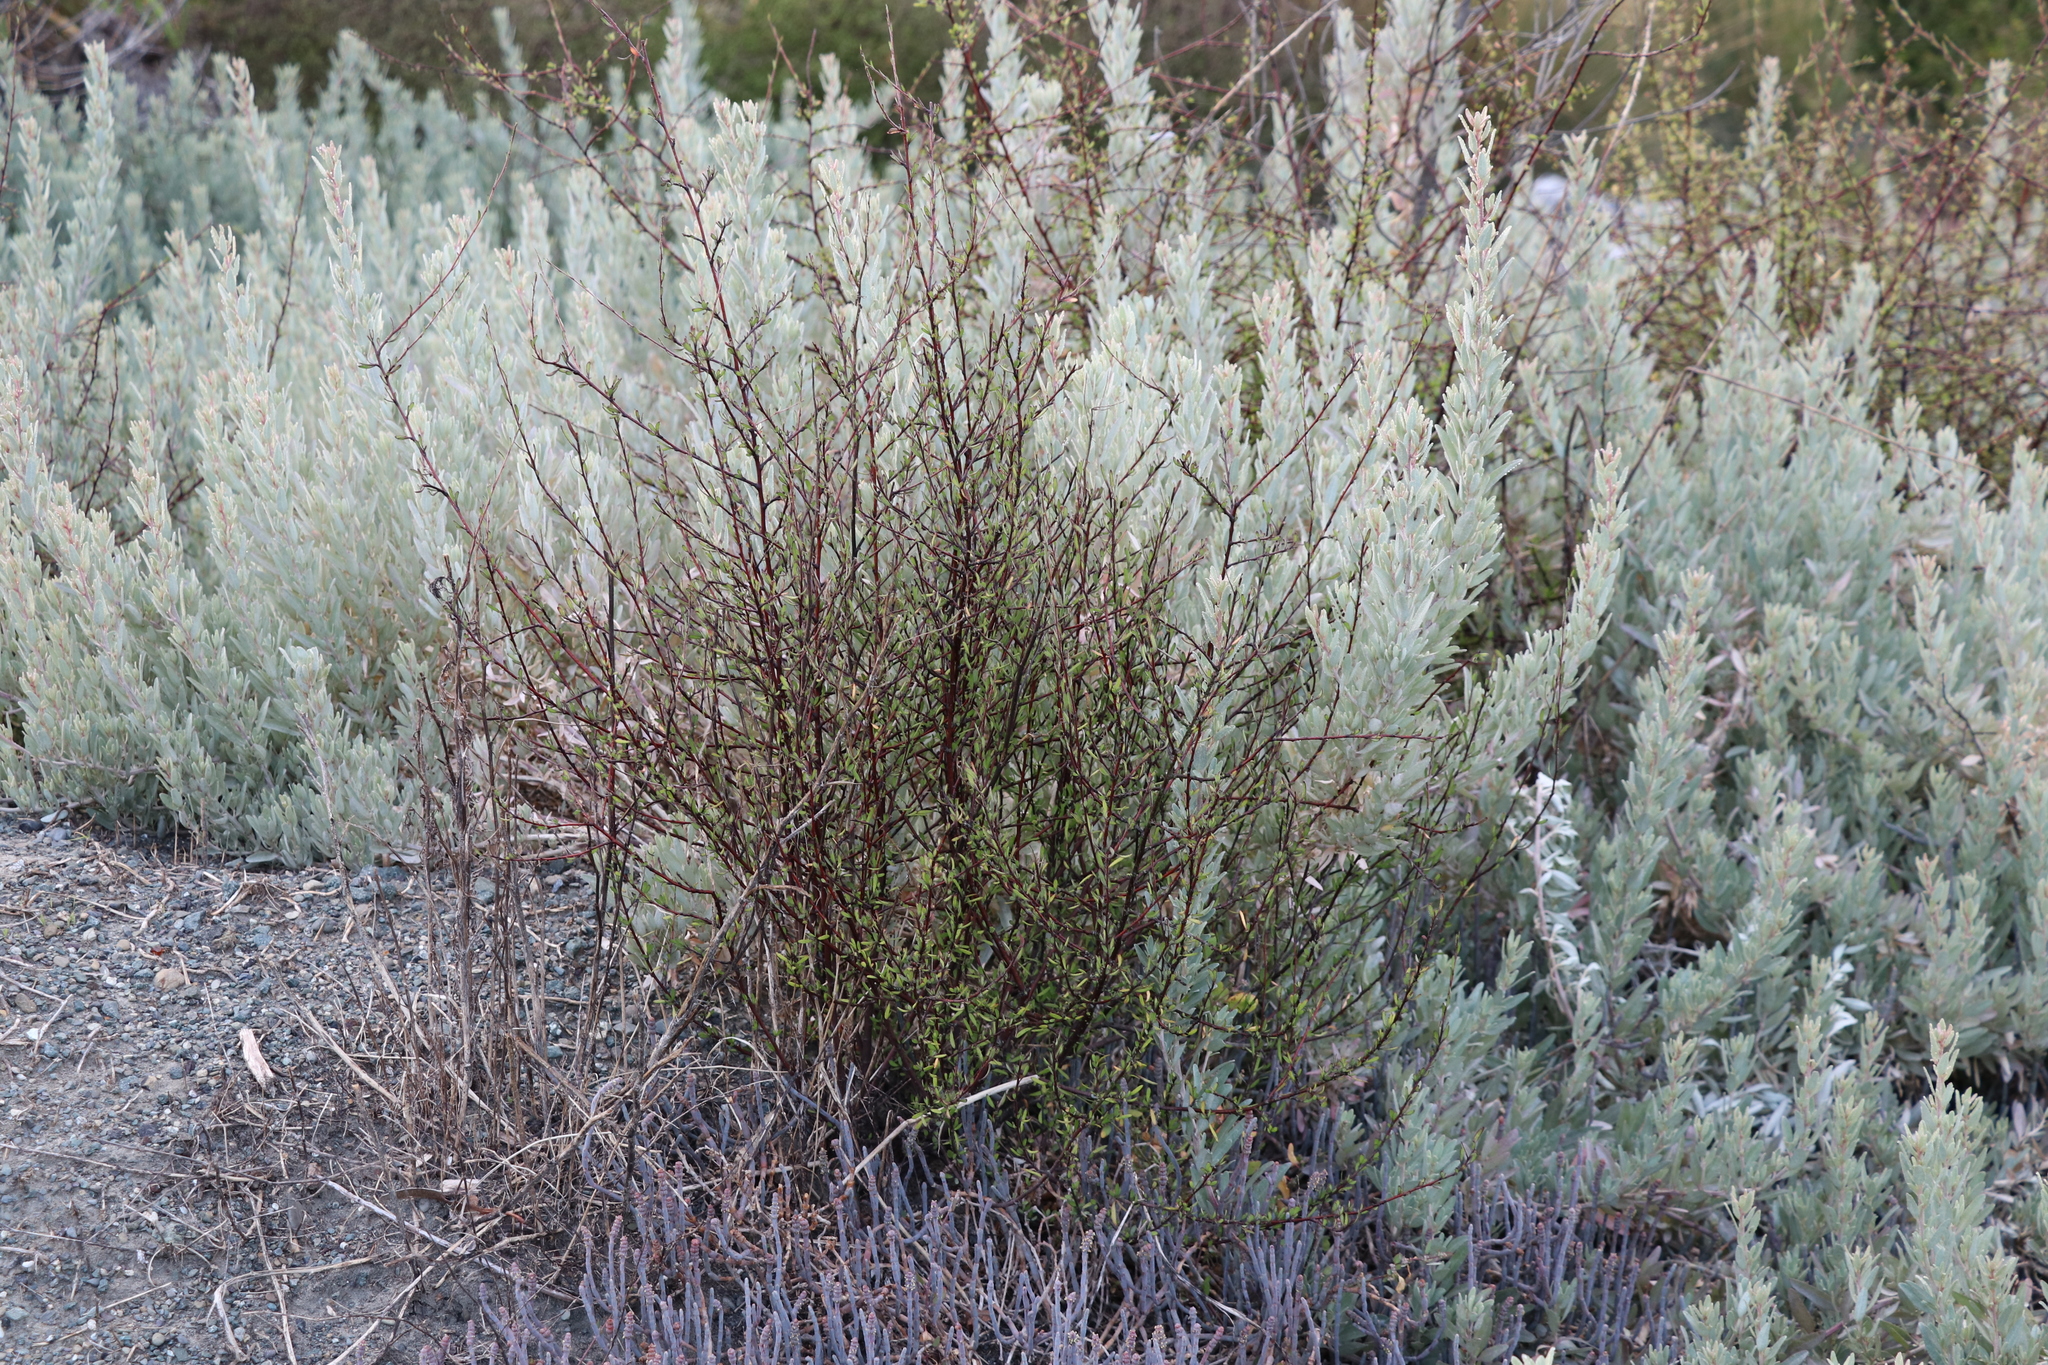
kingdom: Plantae
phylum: Tracheophyta
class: Magnoliopsida
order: Malvales
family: Malvaceae
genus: Plagianthus
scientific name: Plagianthus divaricatus
